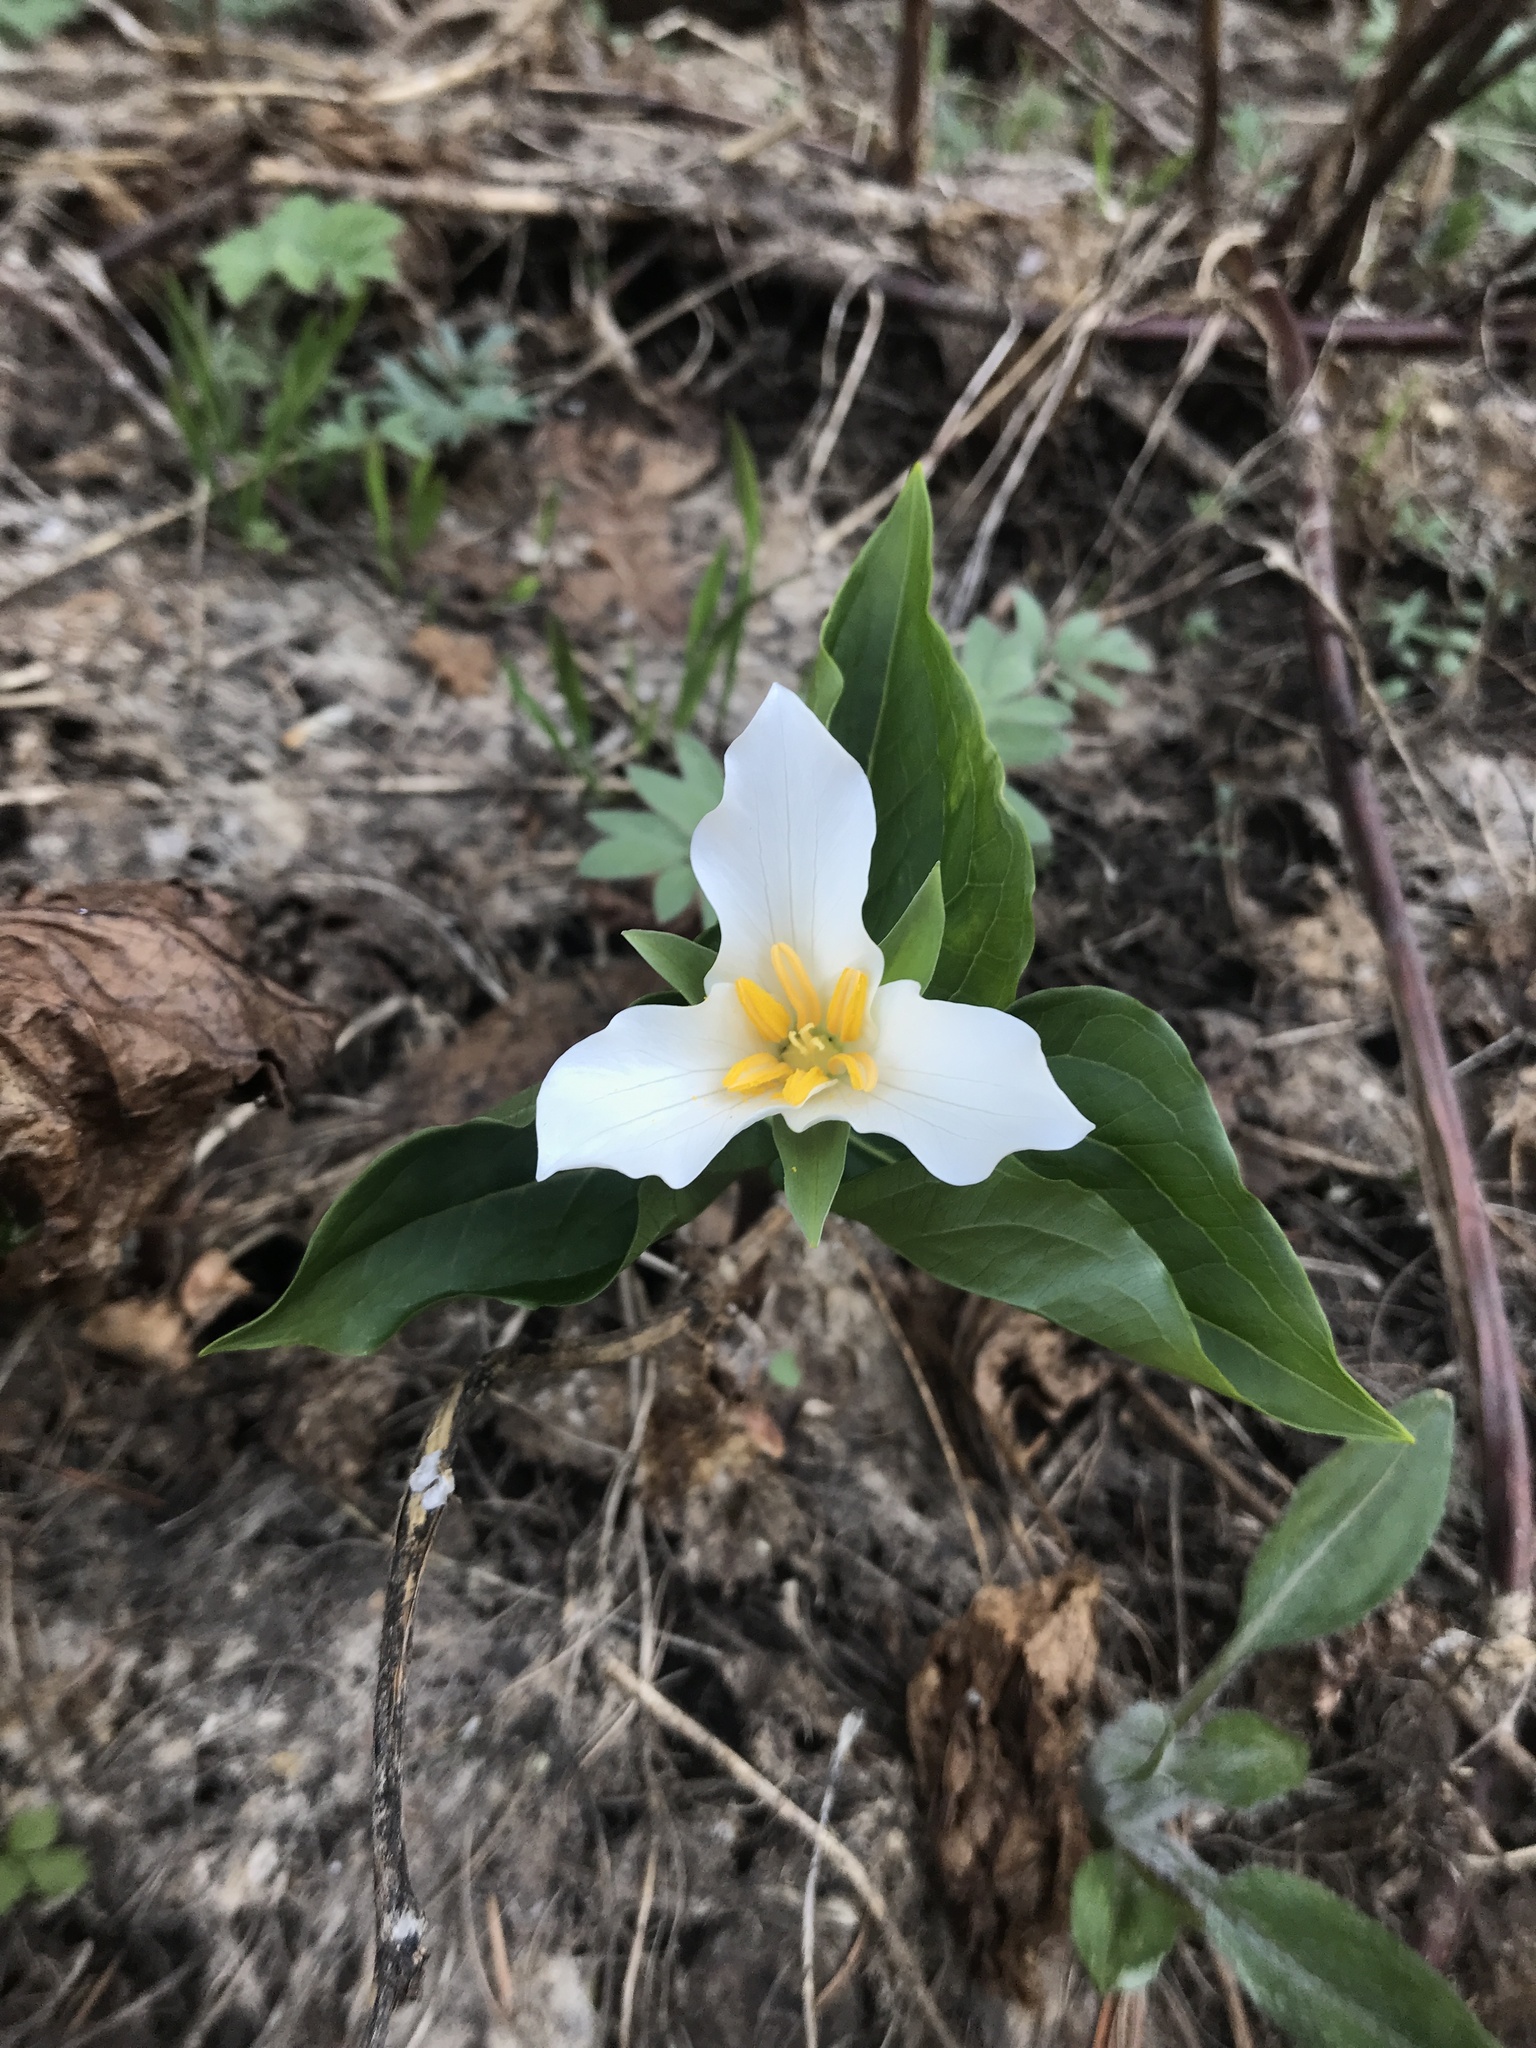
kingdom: Plantae
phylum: Tracheophyta
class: Liliopsida
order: Liliales
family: Melanthiaceae
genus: Trillium
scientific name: Trillium ovatum
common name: Pacific trillium
